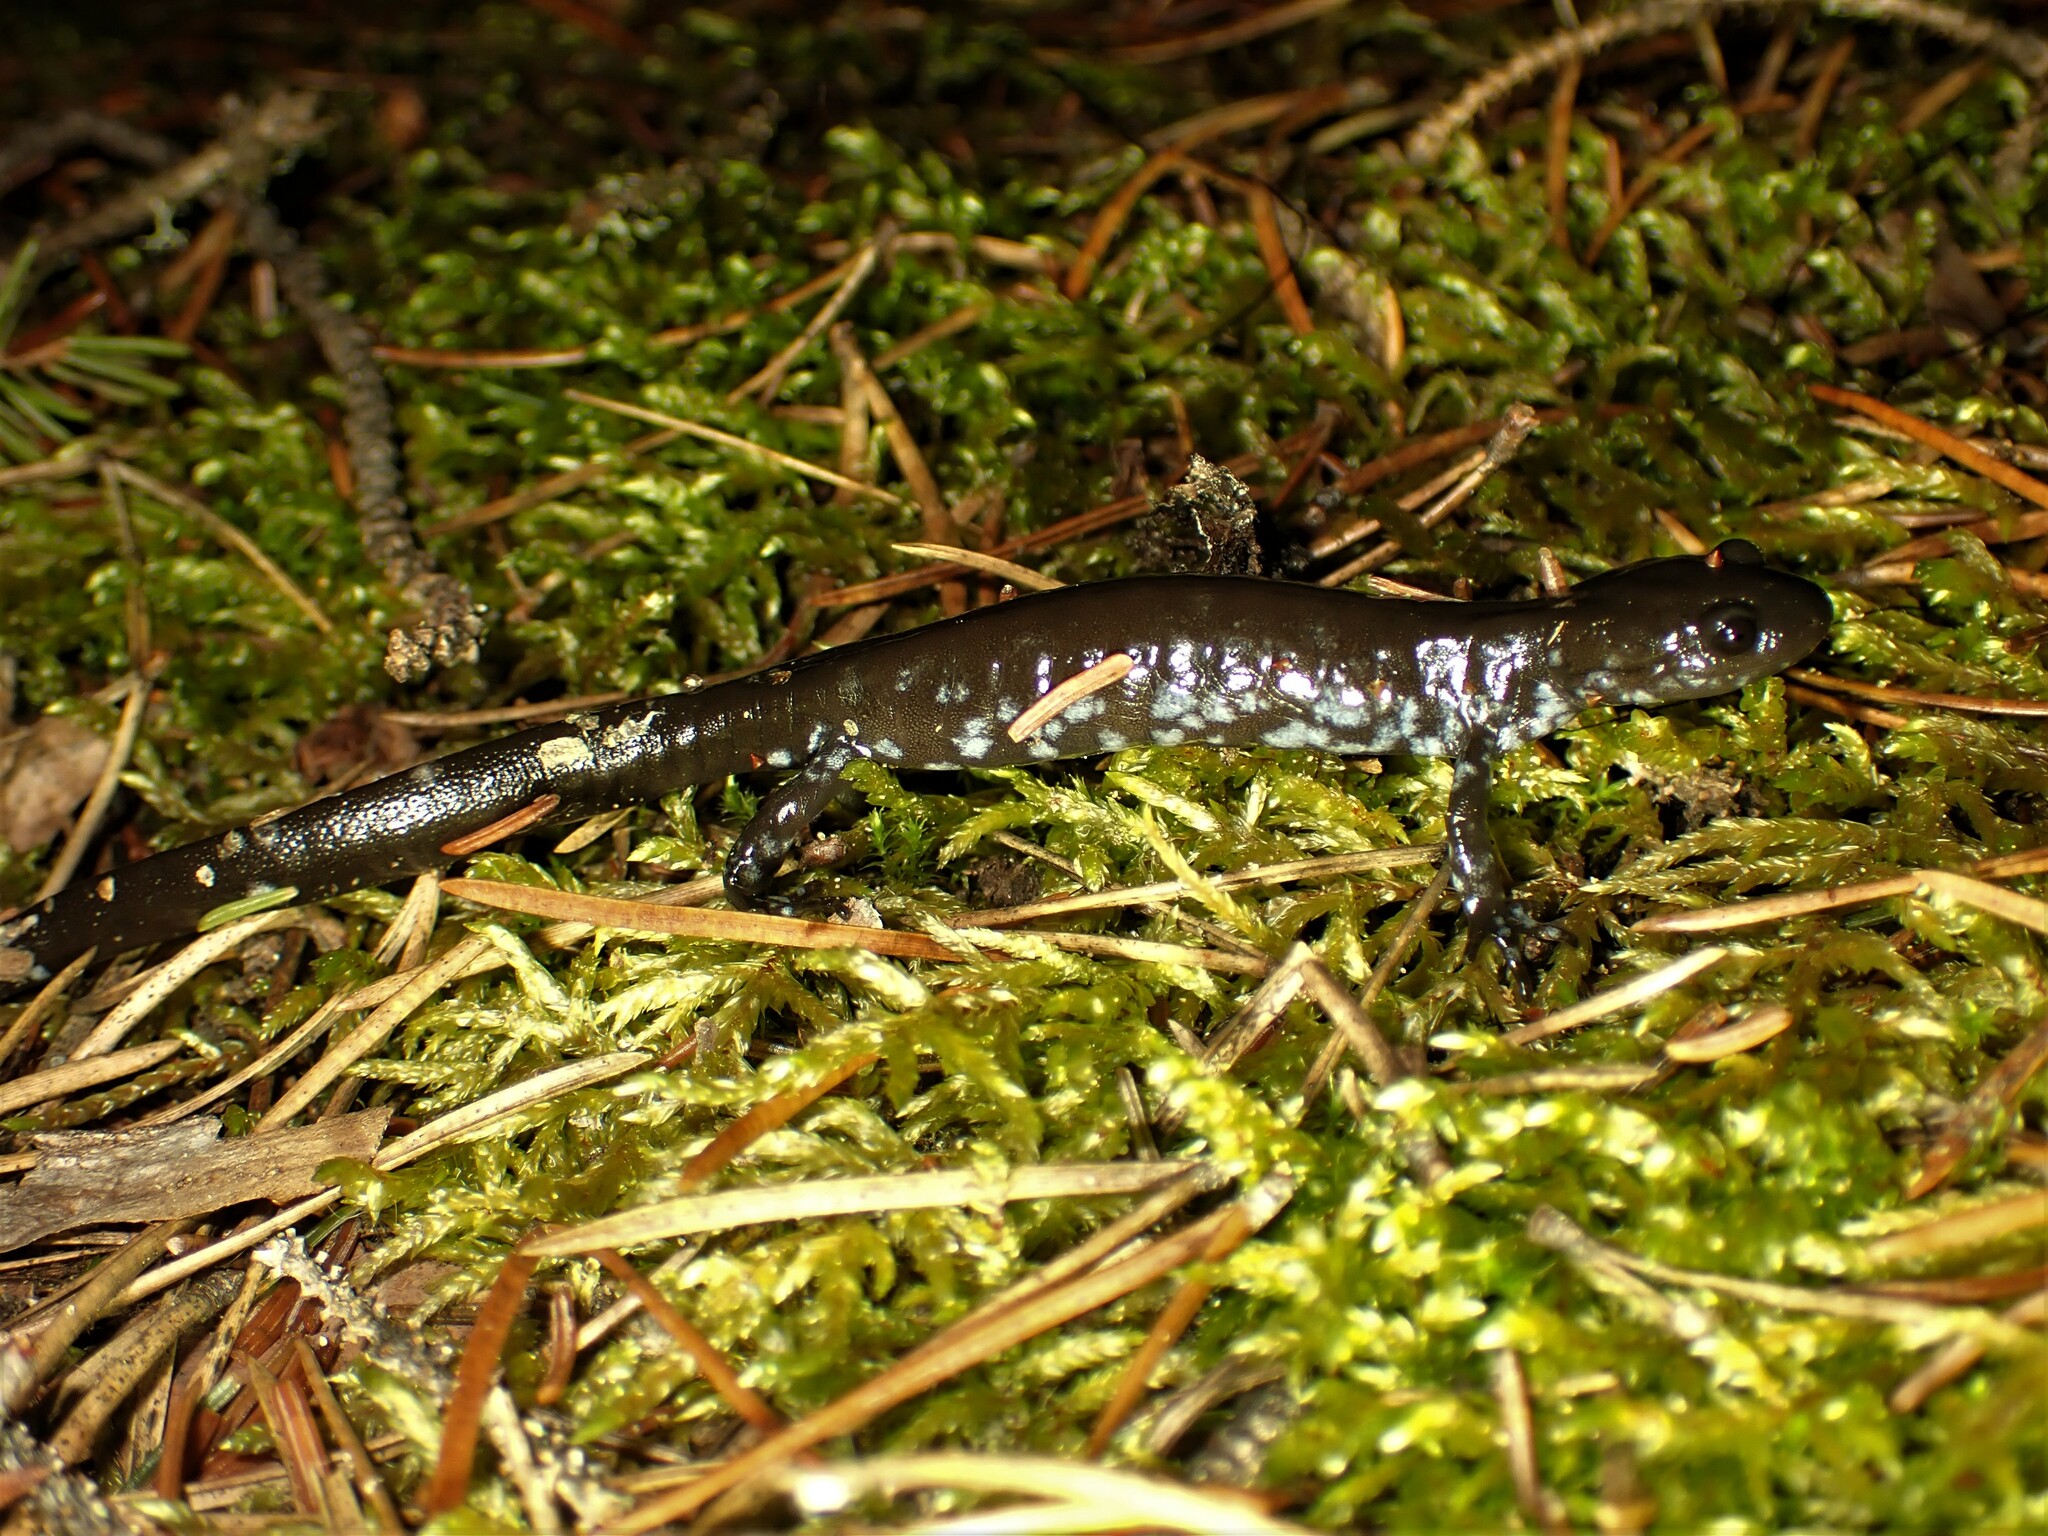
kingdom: Animalia
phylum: Chordata
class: Amphibia
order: Caudata
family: Ambystomatidae
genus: Ambystoma
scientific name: Ambystoma laterale
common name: Blue-spotted salamander
